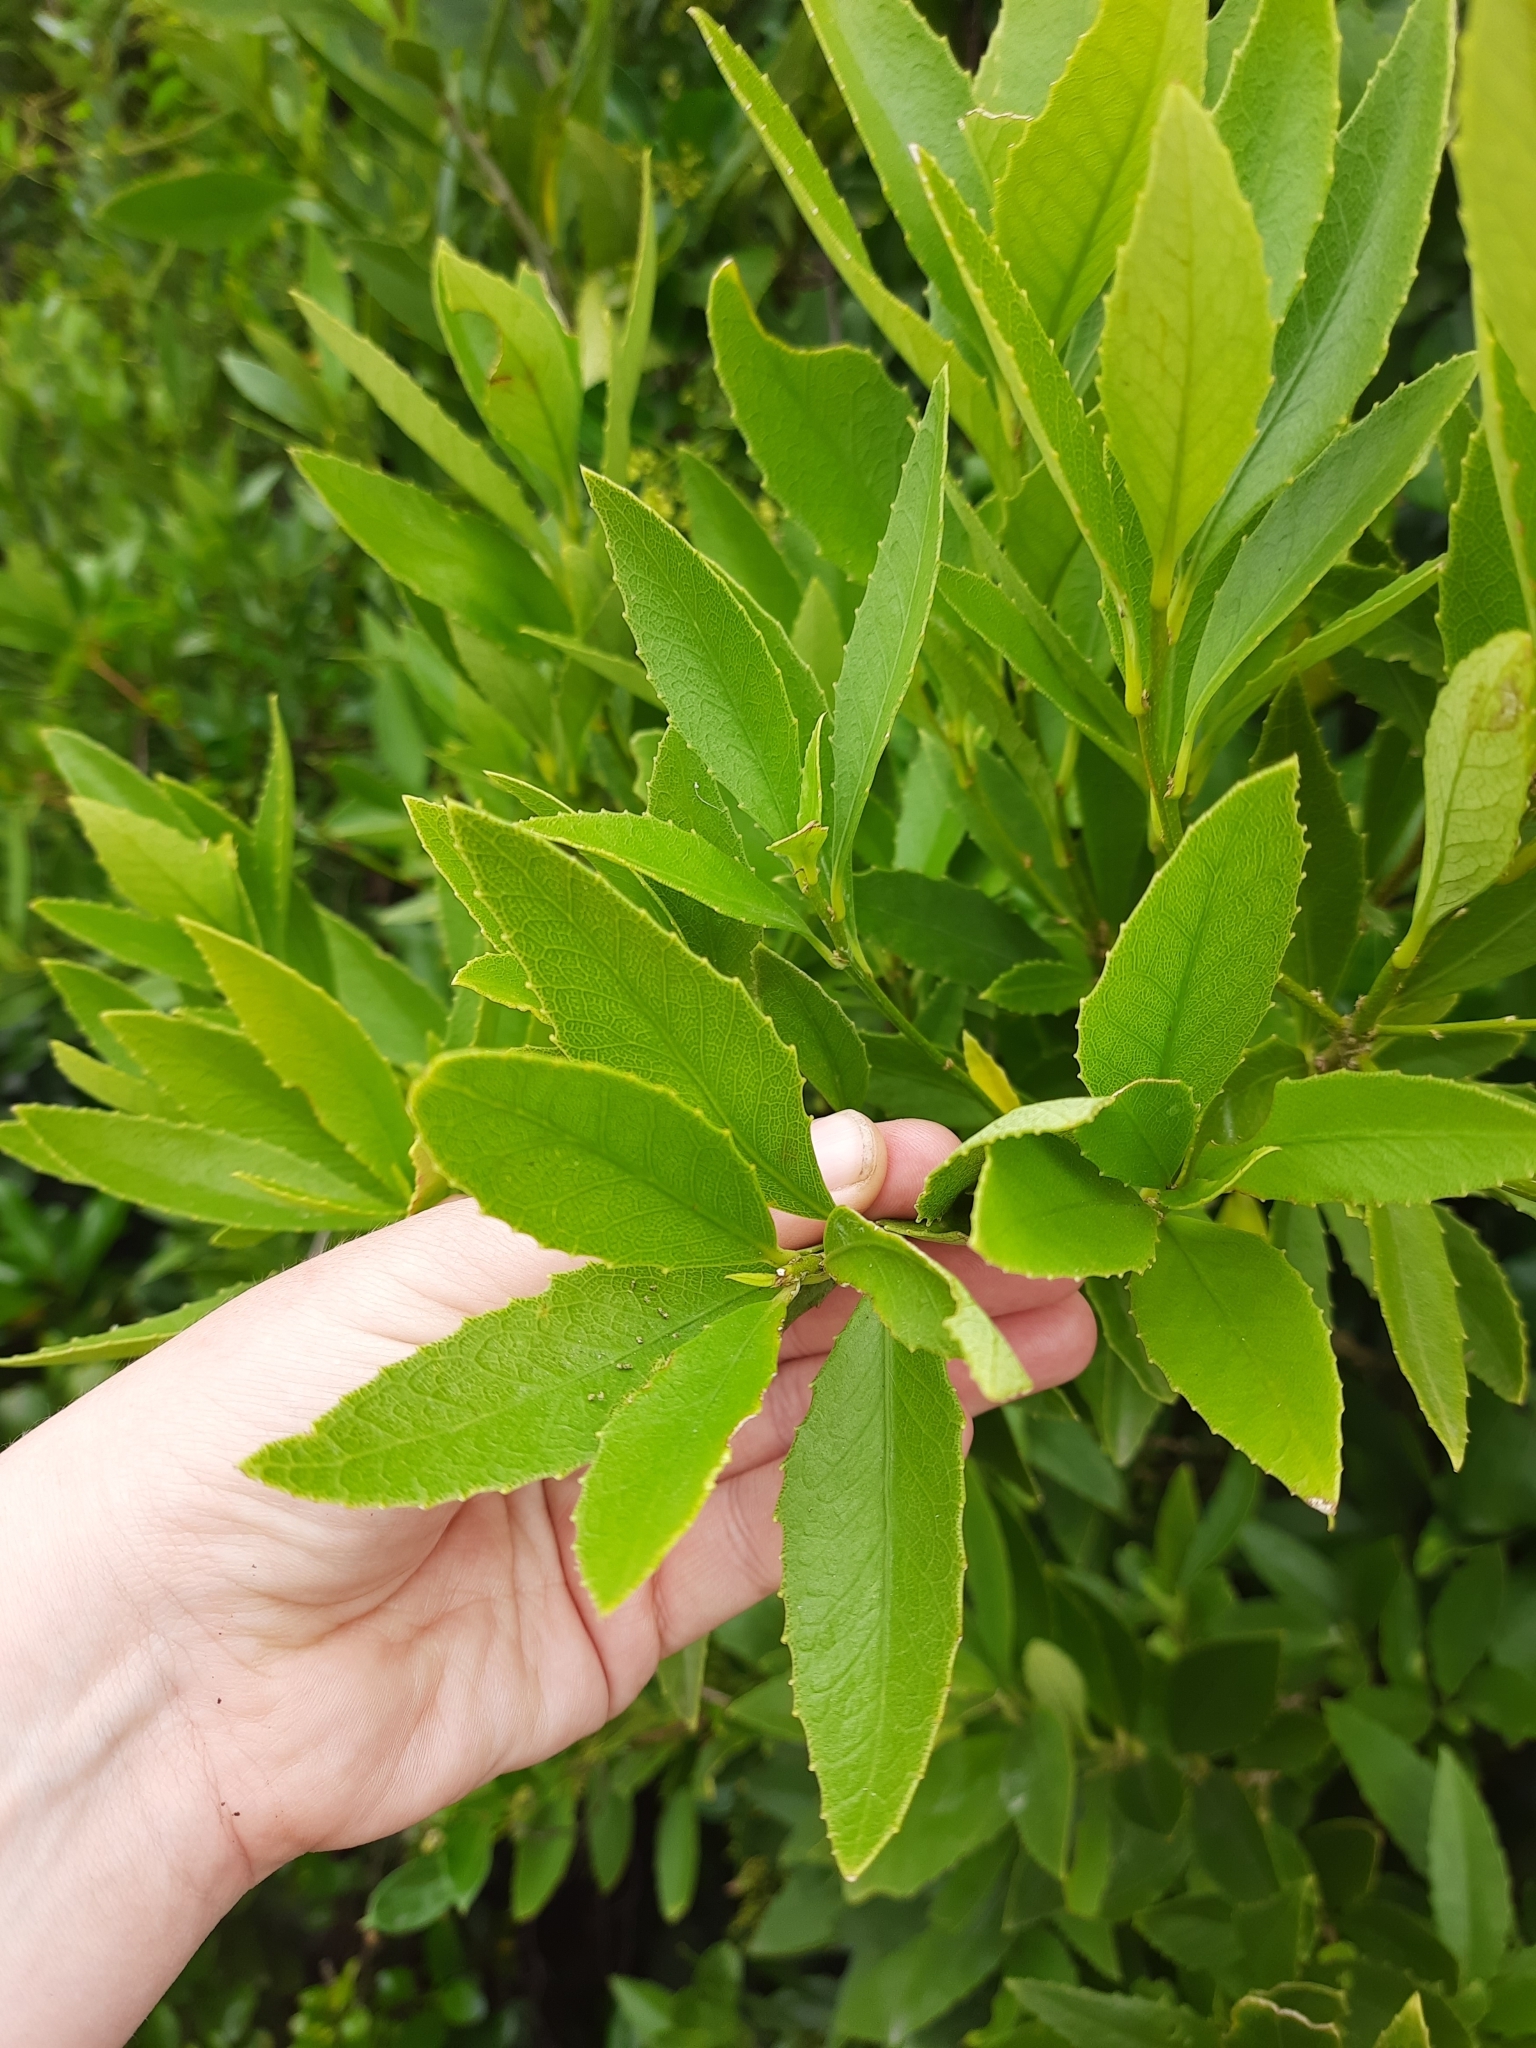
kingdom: Plantae
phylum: Tracheophyta
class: Magnoliopsida
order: Malpighiales
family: Violaceae
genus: Melicytus
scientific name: Melicytus chathamicus
